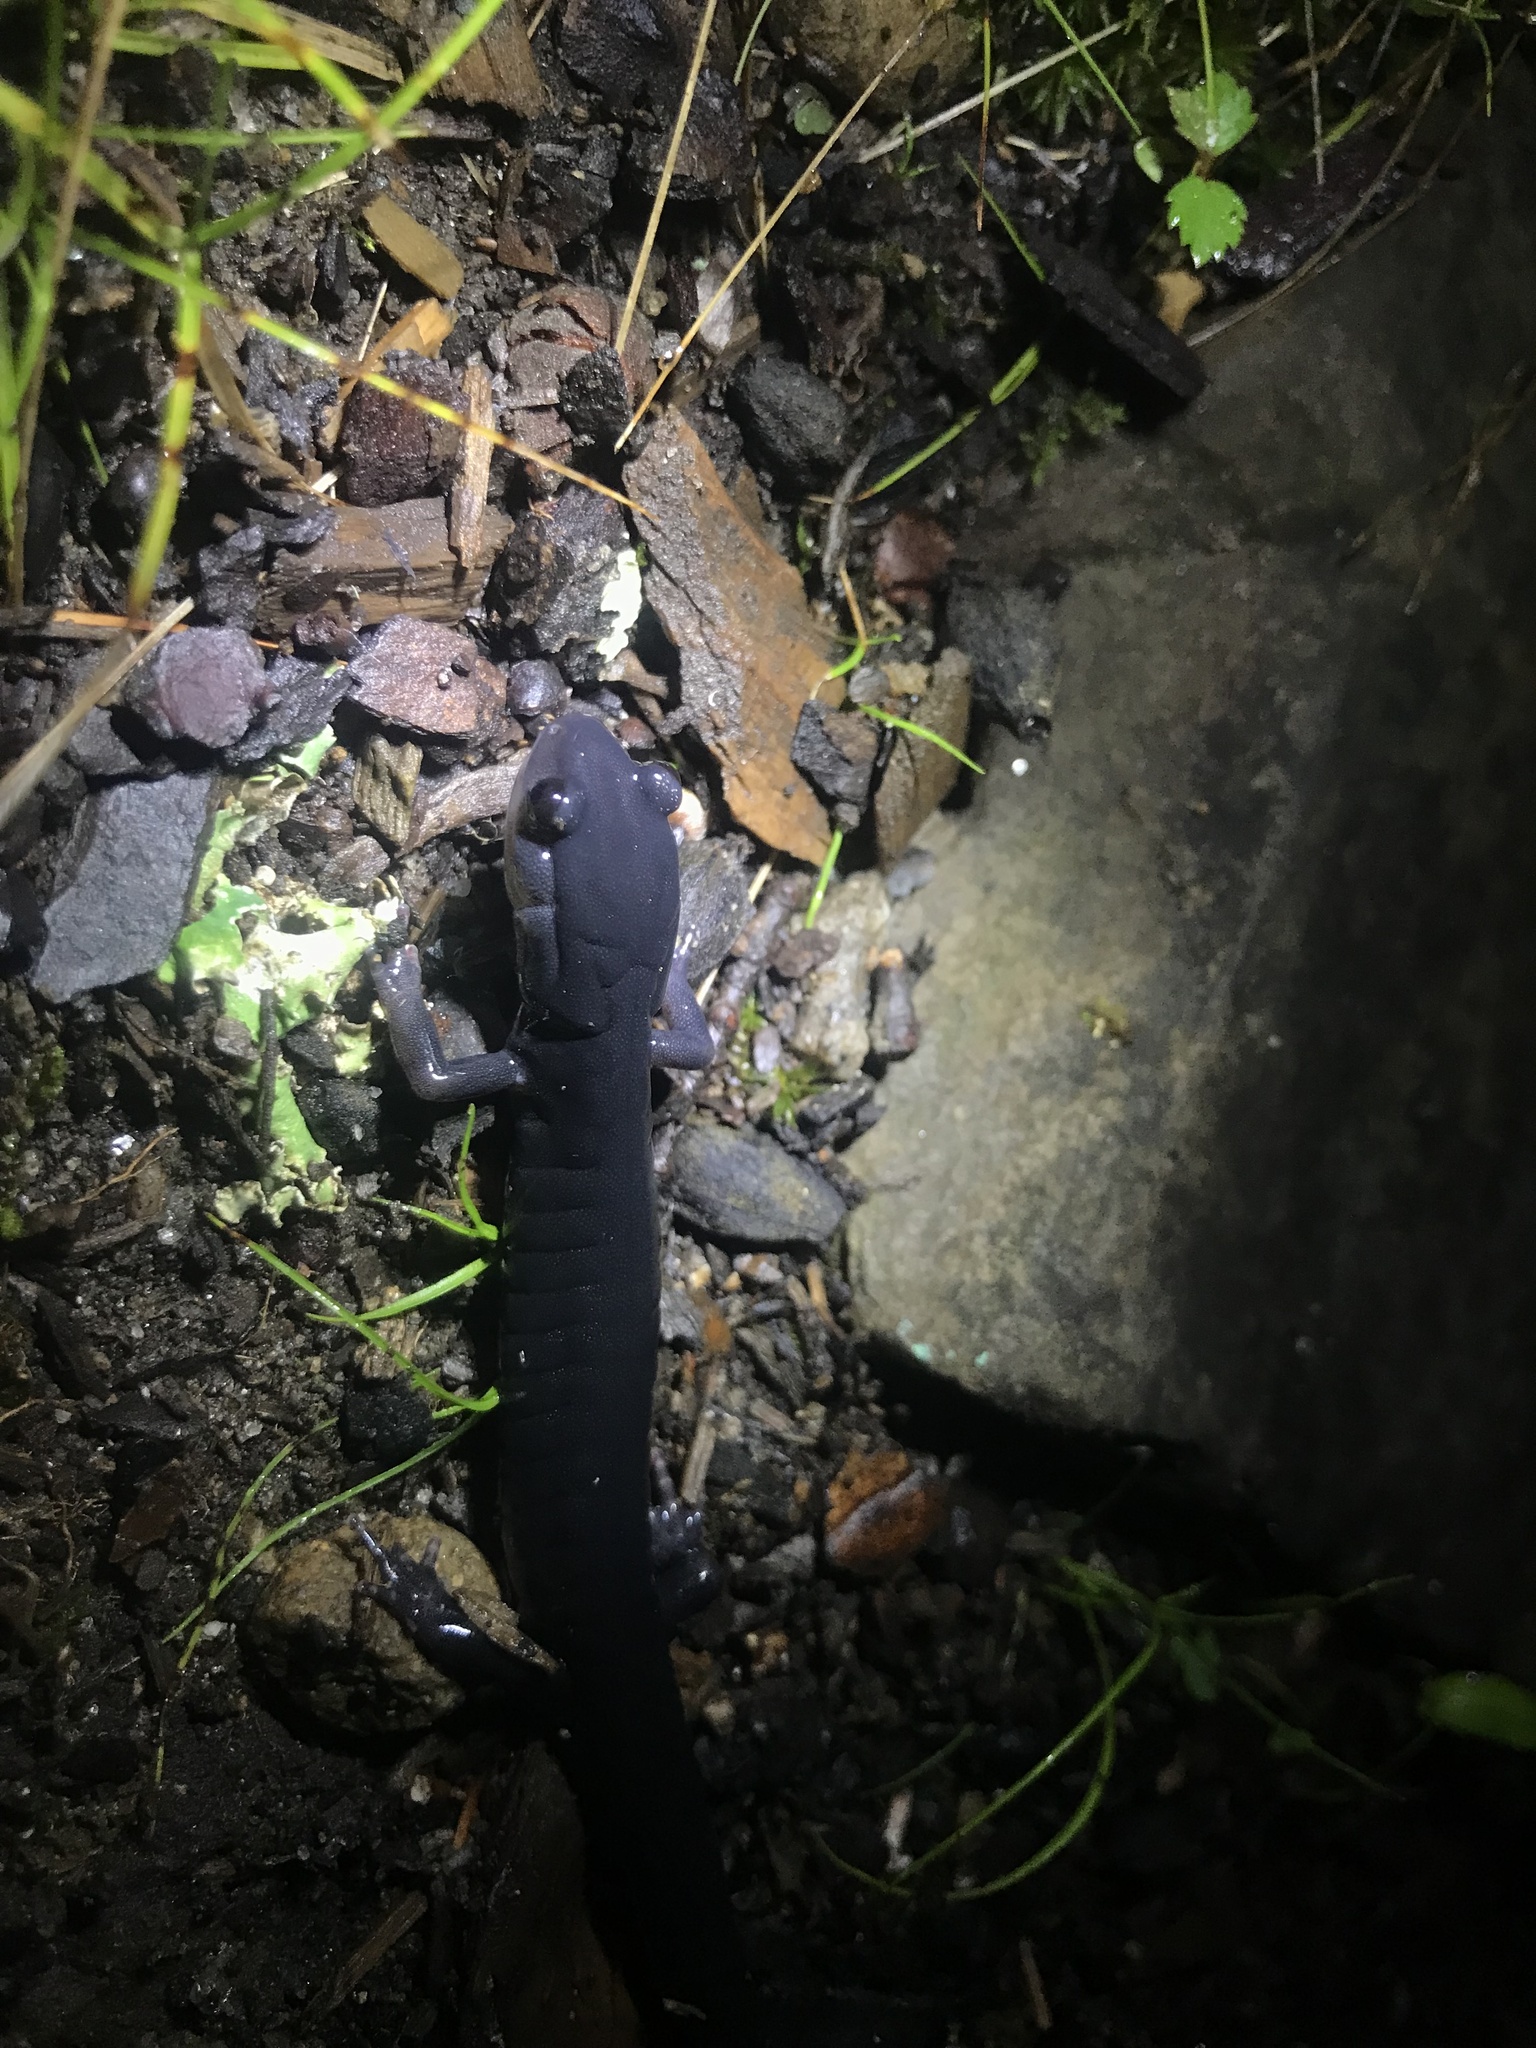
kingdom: Animalia
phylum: Chordata
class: Amphibia
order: Caudata
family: Plethodontidae
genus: Plethodon
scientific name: Plethodon metcalfi
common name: Southern gray-cheeked salamander
